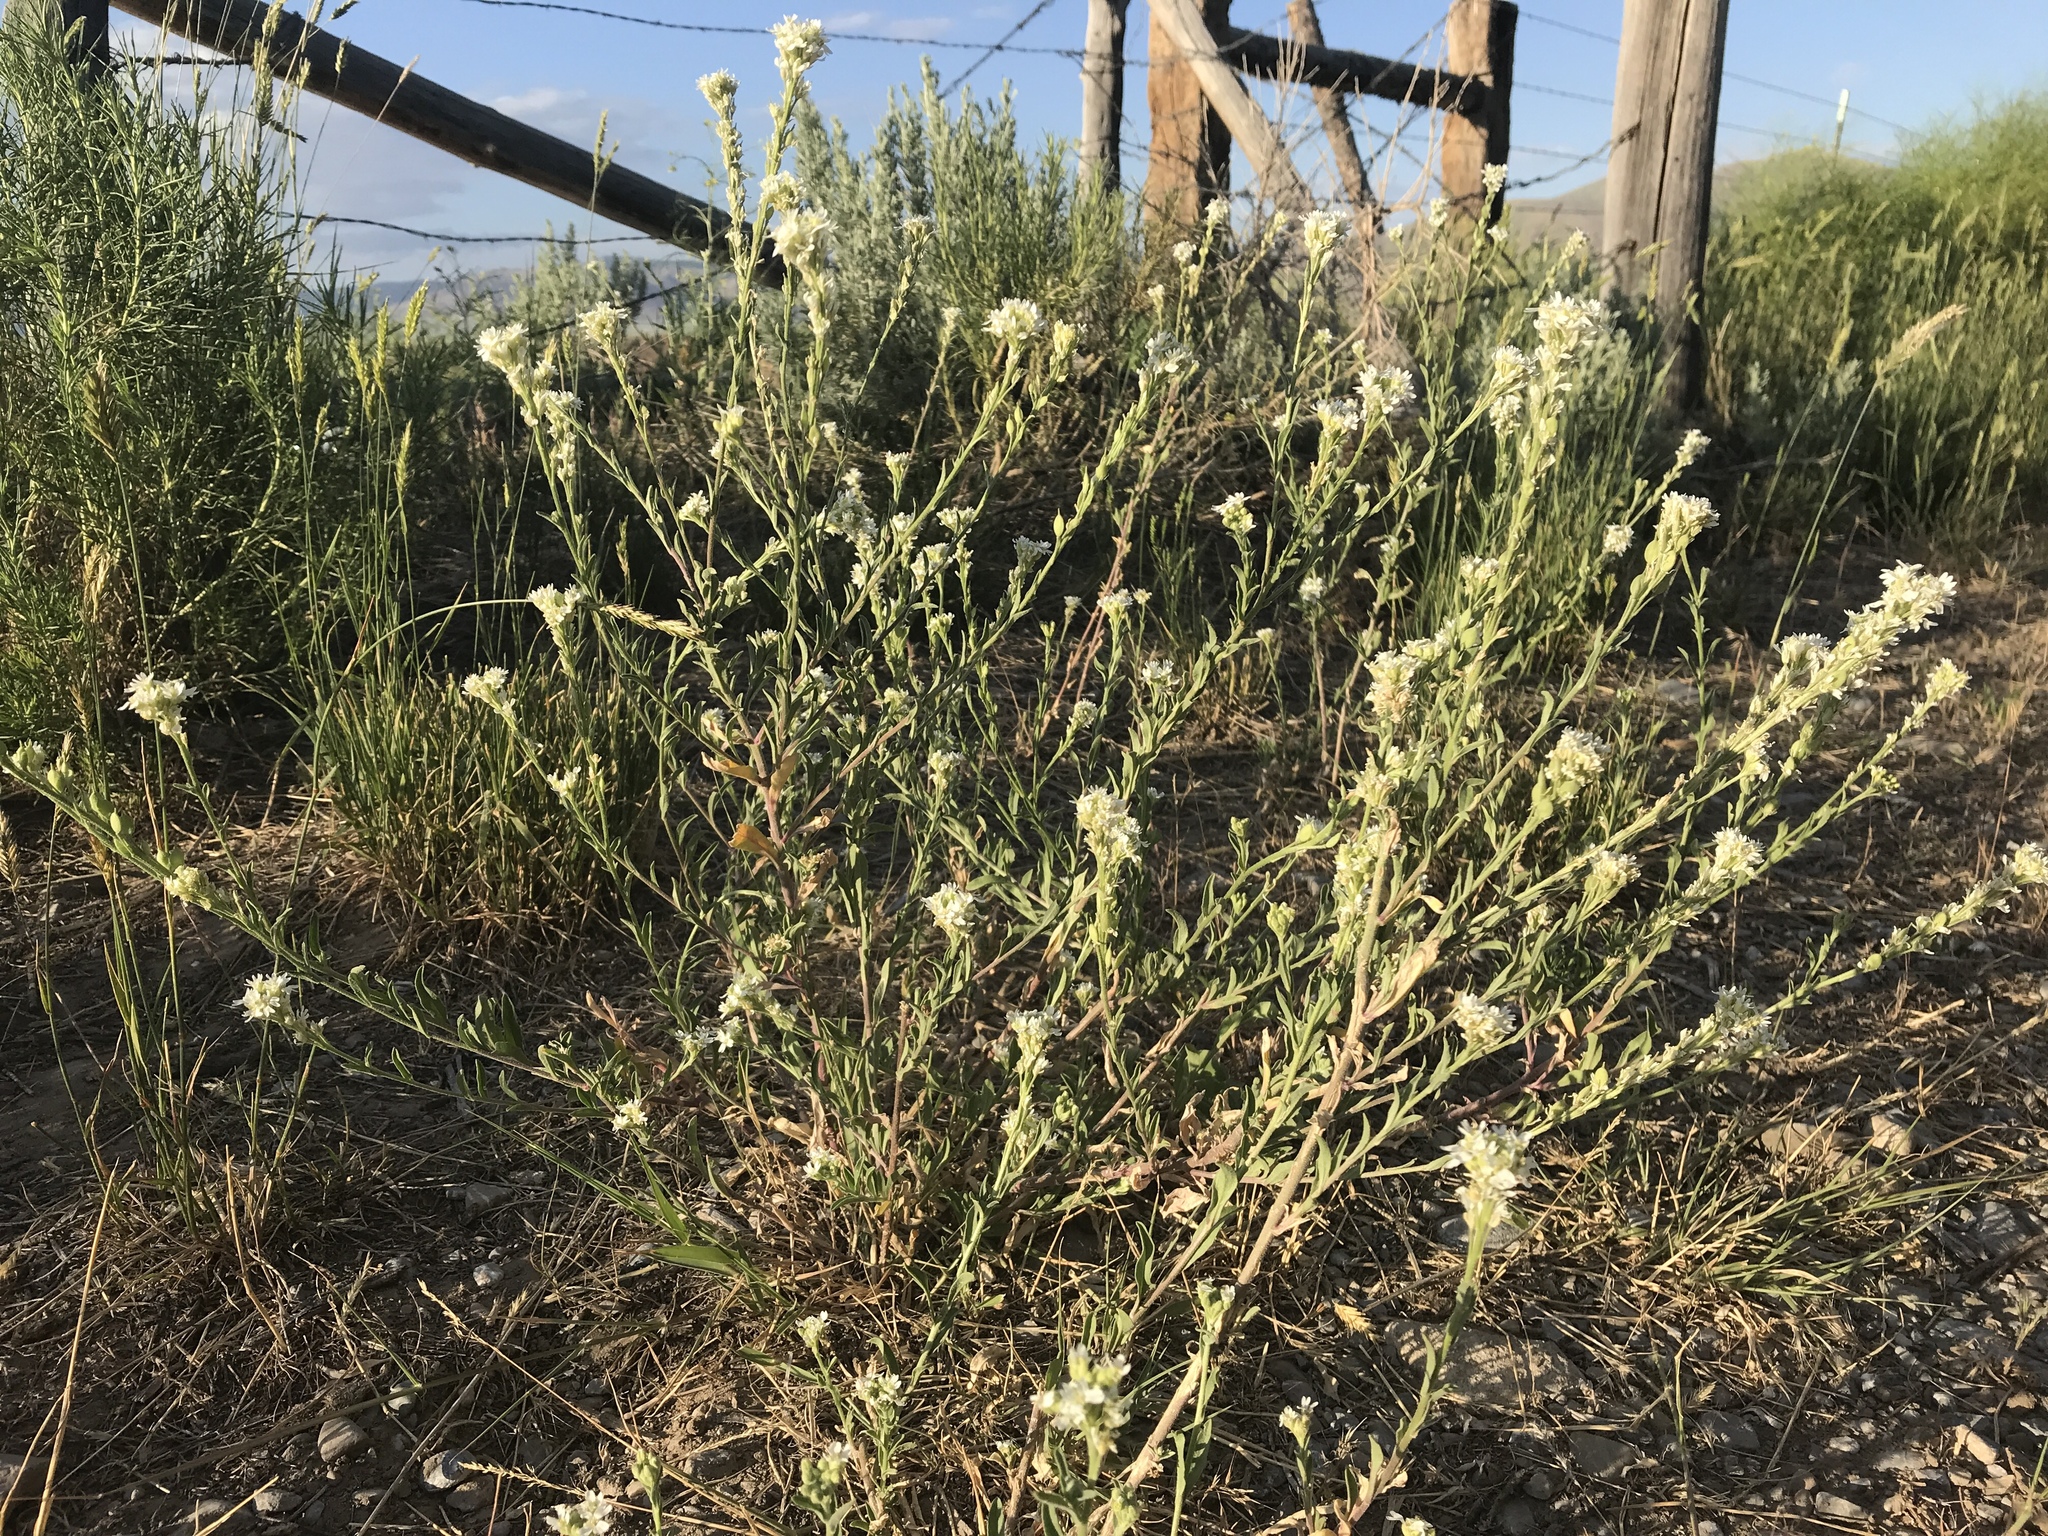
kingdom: Plantae
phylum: Tracheophyta
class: Magnoliopsida
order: Brassicales
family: Brassicaceae
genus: Berteroa
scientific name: Berteroa incana
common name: Hoary alison
